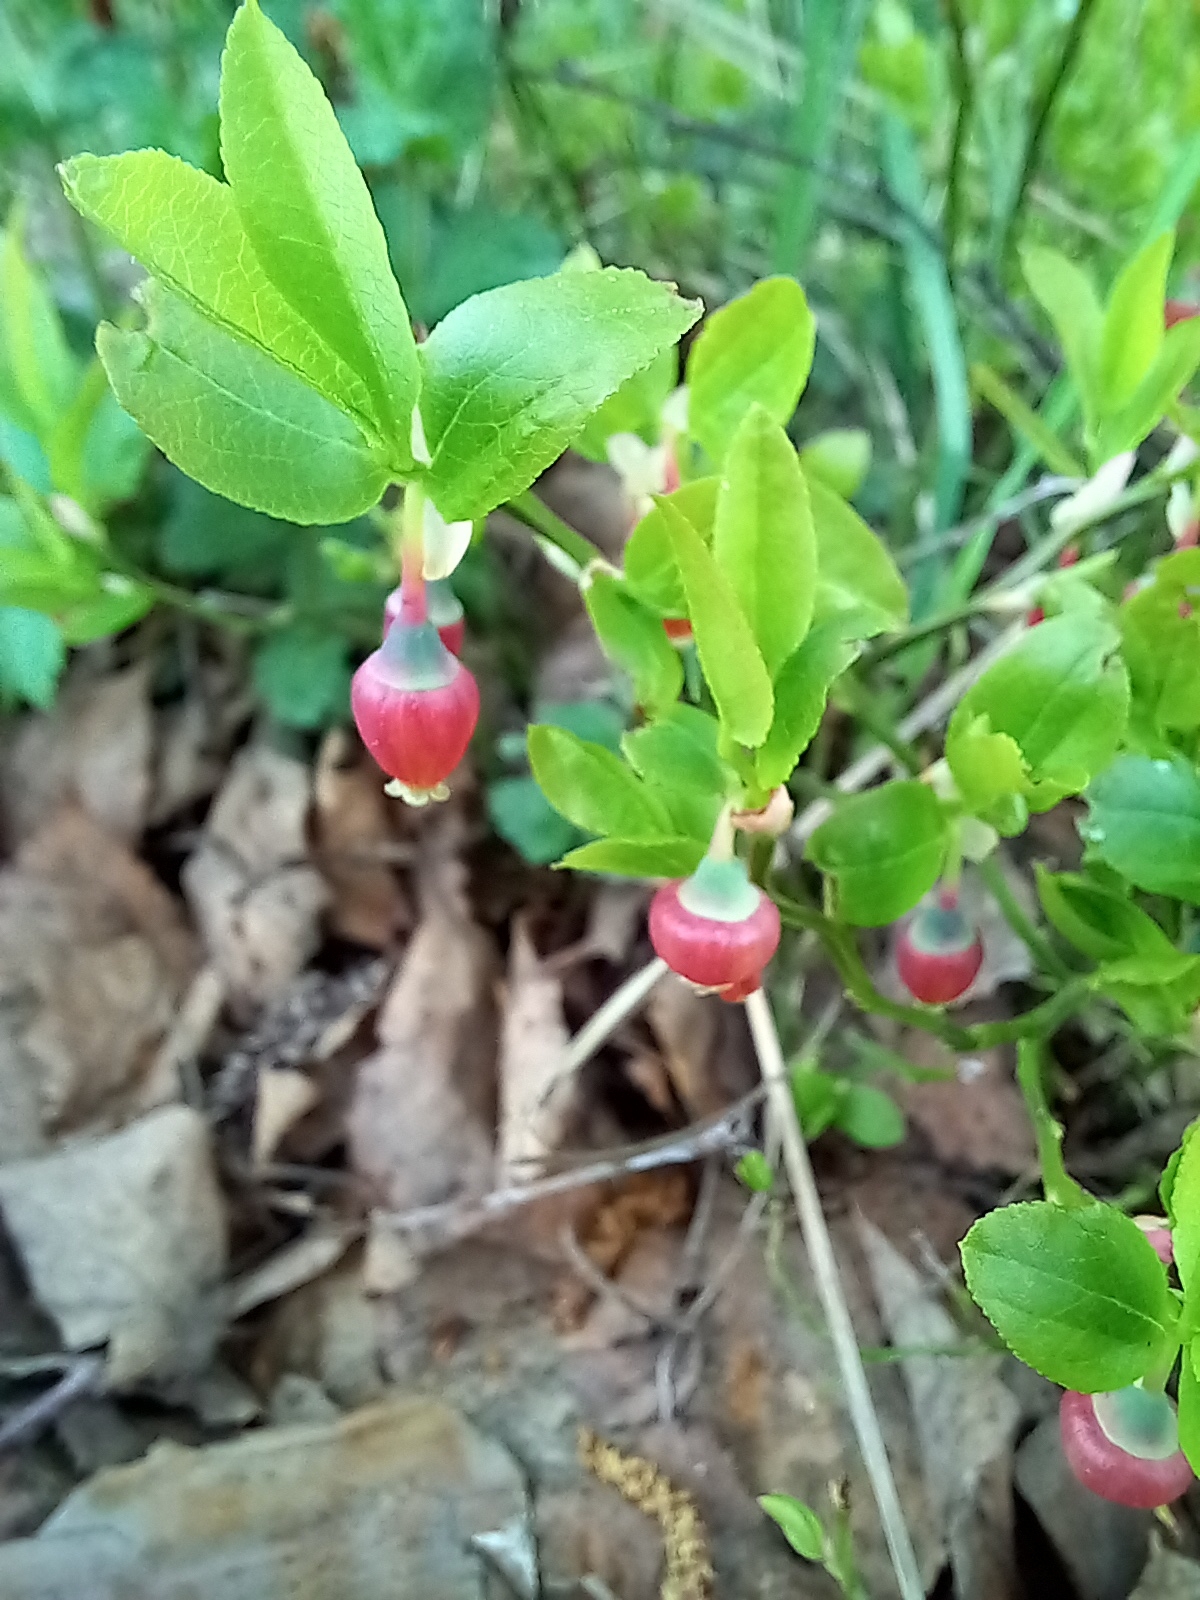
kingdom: Plantae
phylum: Tracheophyta
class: Magnoliopsida
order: Ericales
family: Ericaceae
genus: Vaccinium
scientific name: Vaccinium myrtillus
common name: Bilberry
